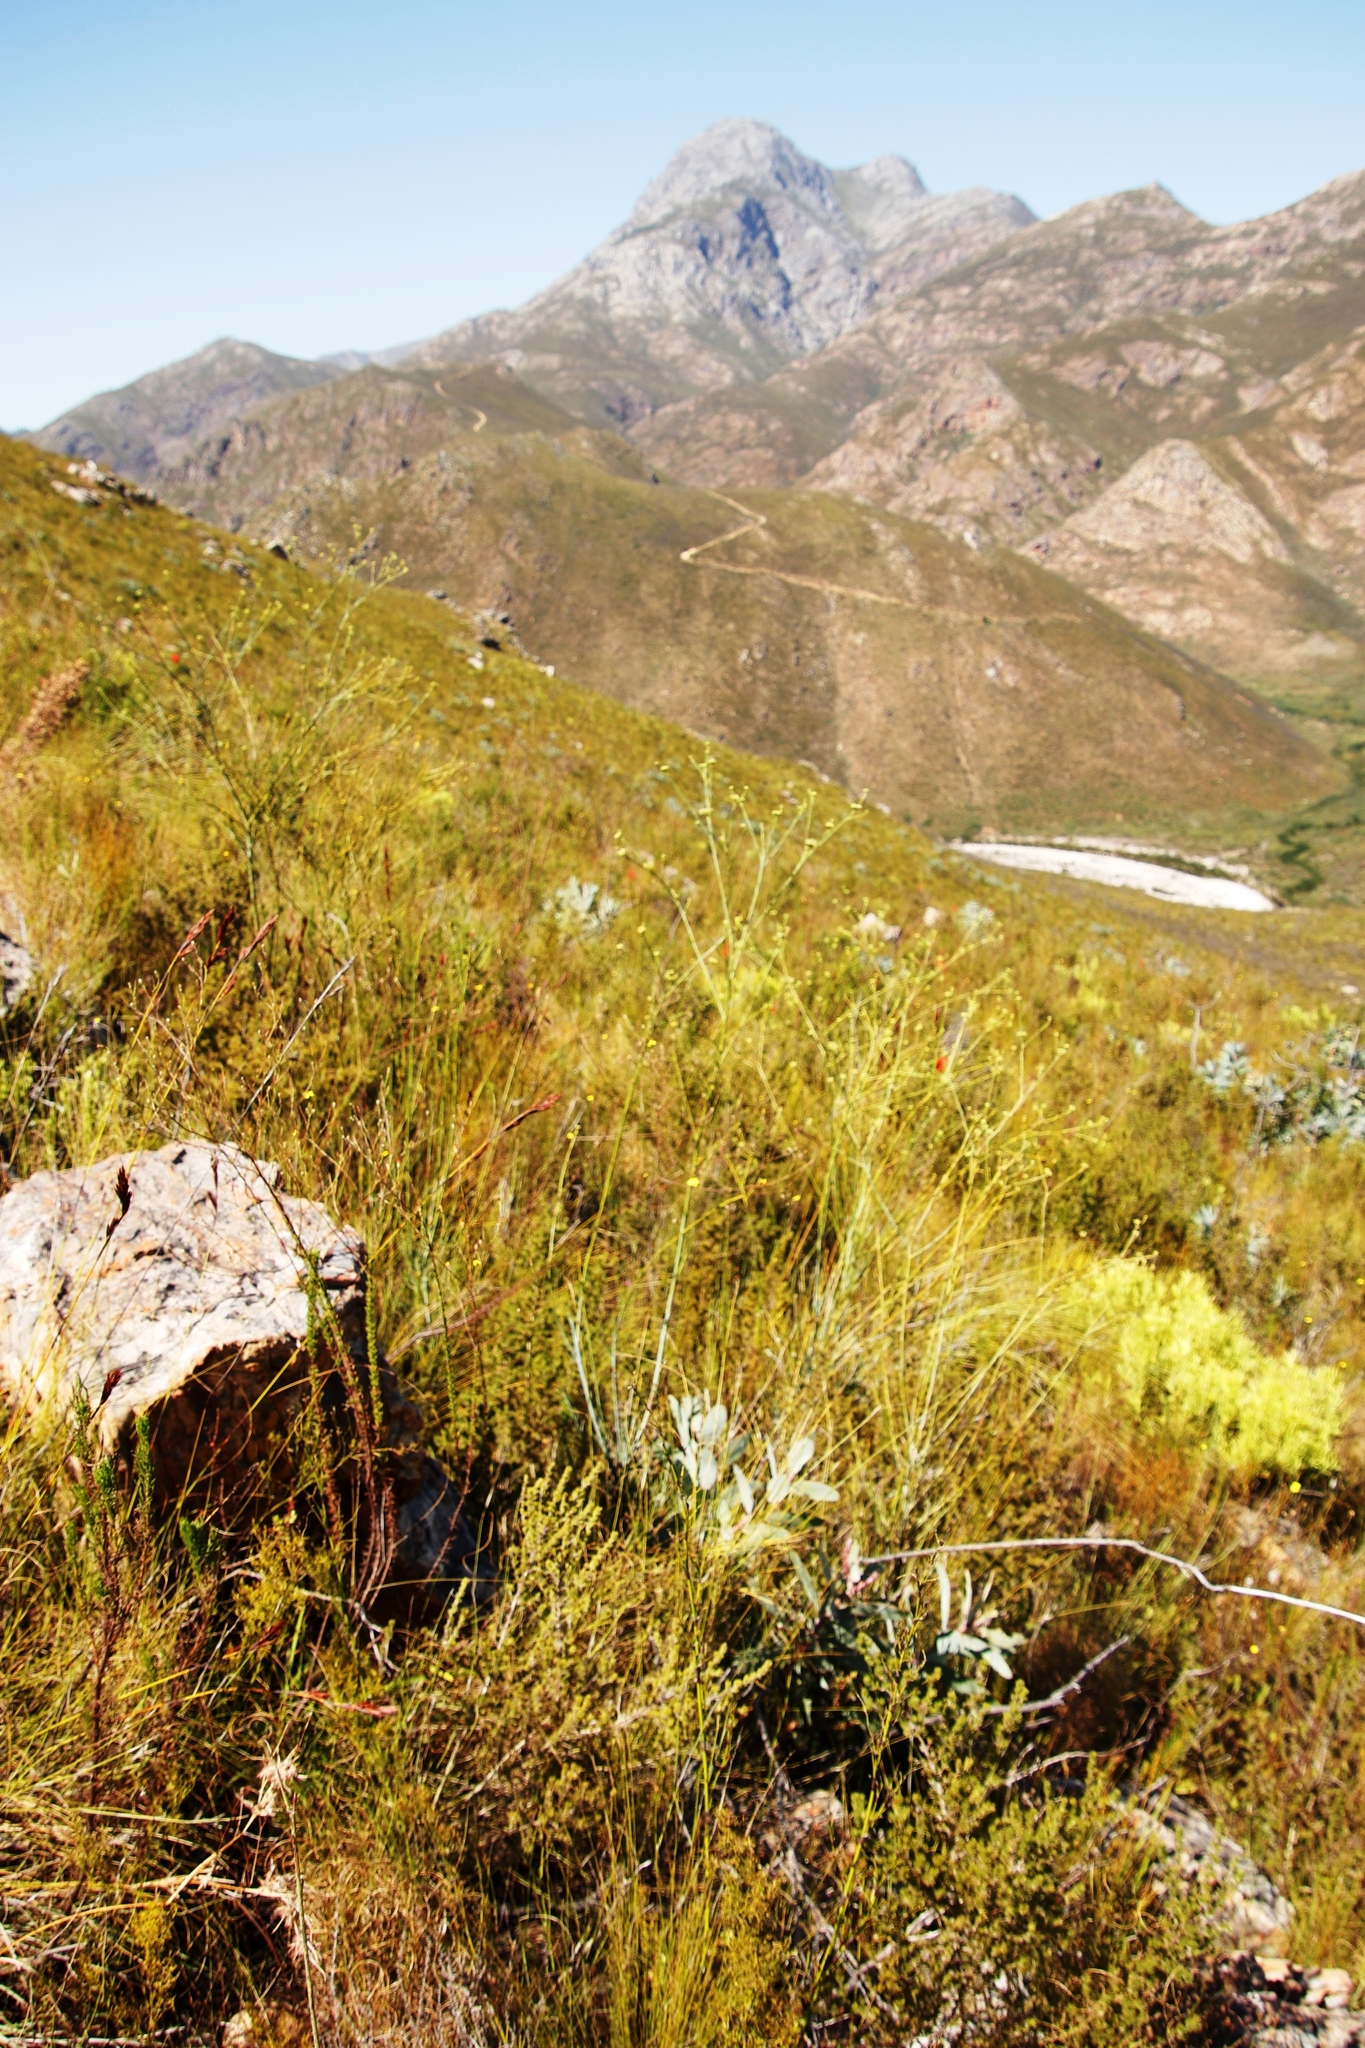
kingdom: Plantae
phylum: Tracheophyta
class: Magnoliopsida
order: Santalales
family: Thesiaceae
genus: Thesium
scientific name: Thesium strictum
